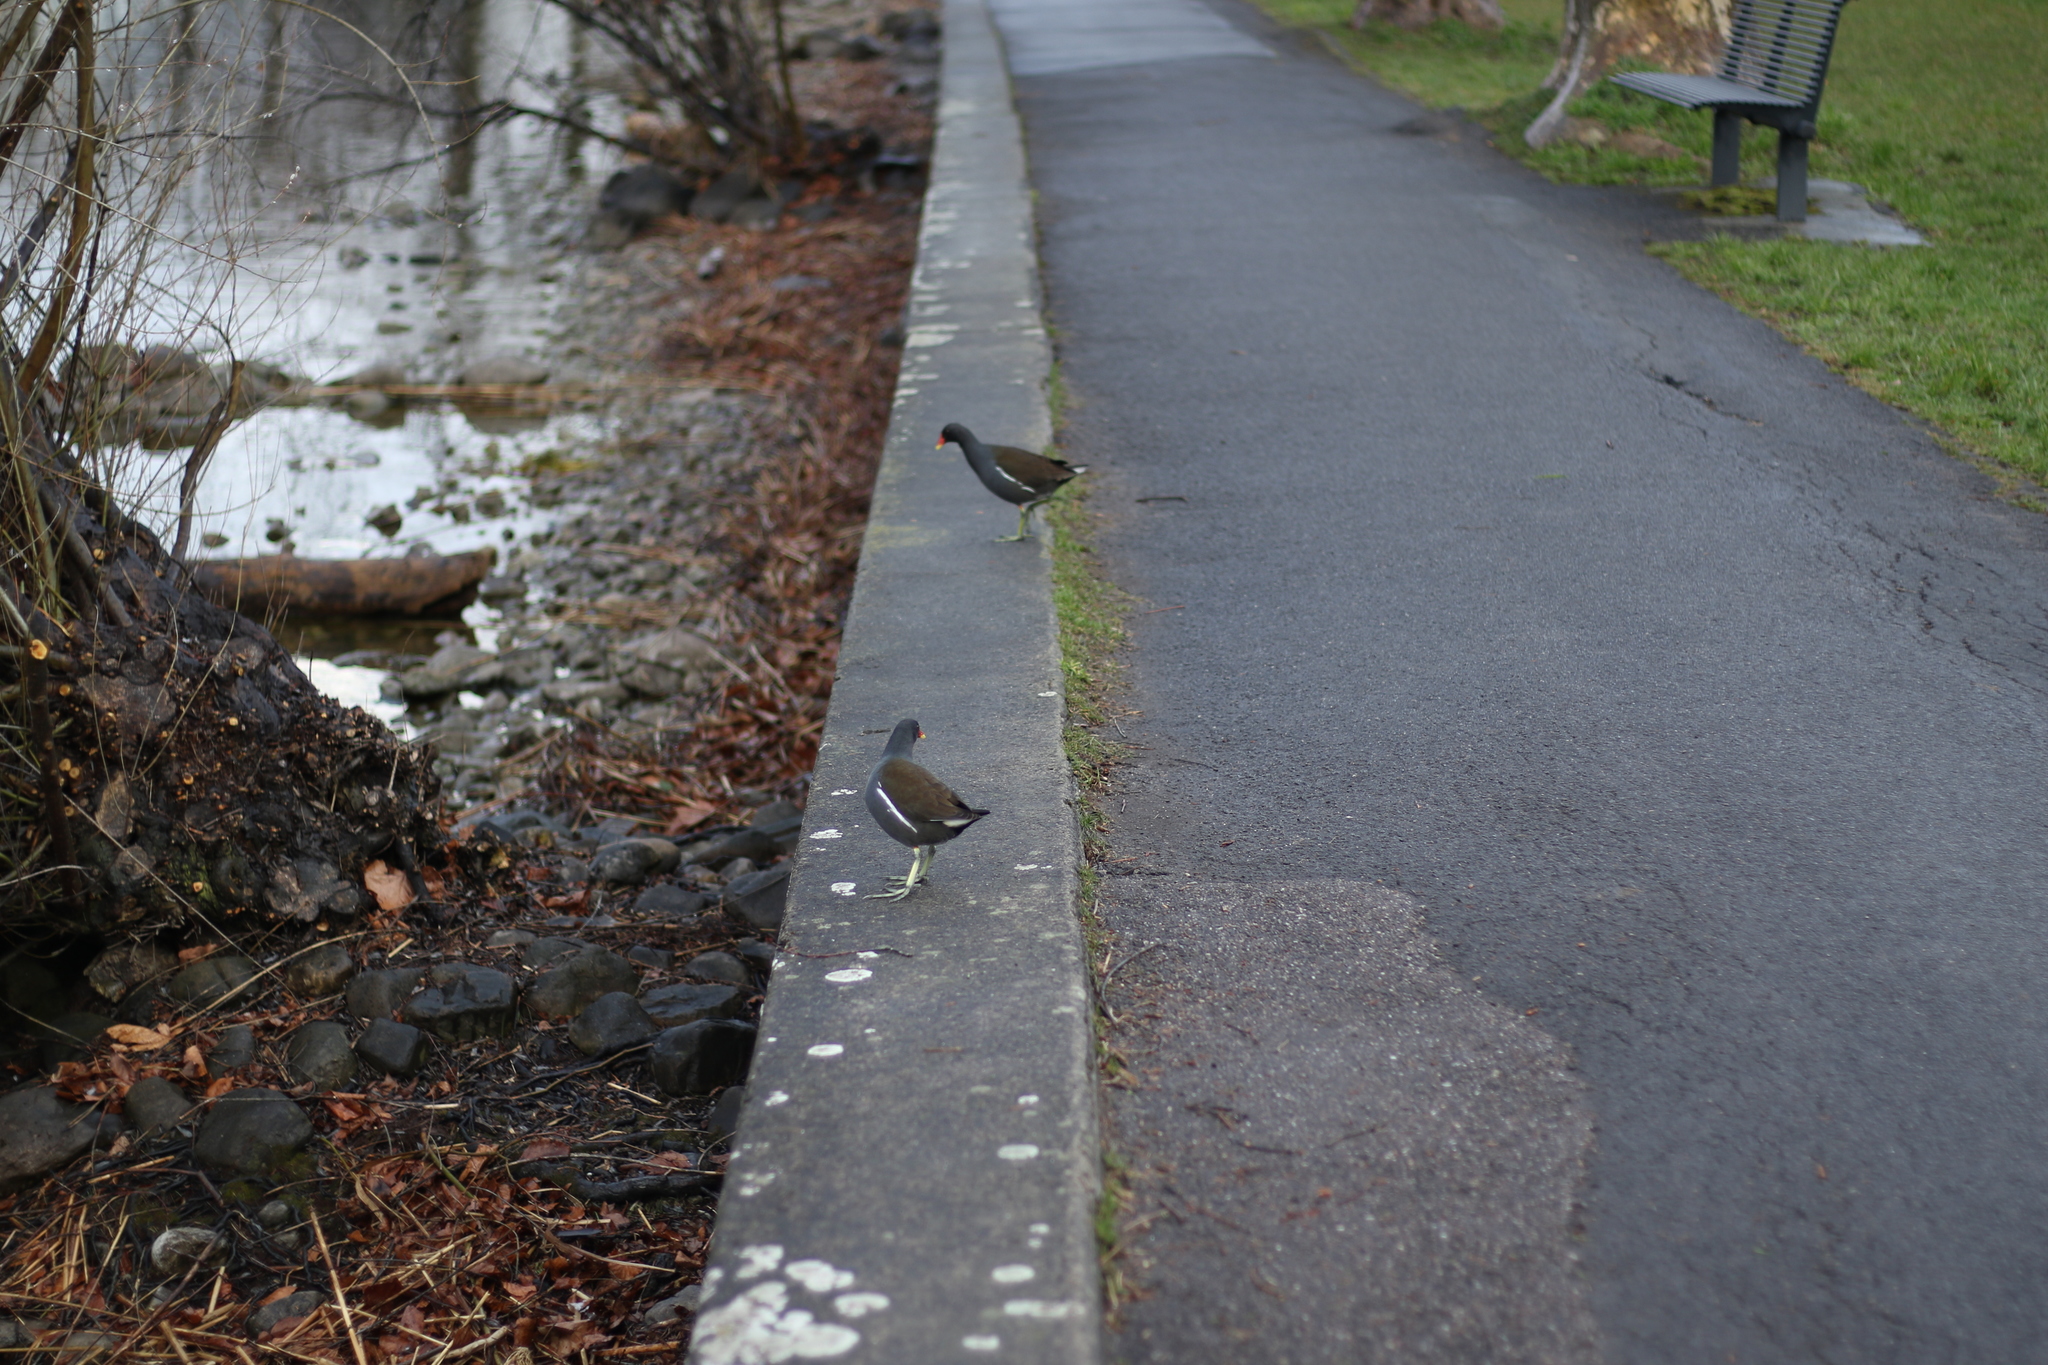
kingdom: Animalia
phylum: Chordata
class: Aves
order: Gruiformes
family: Rallidae
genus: Gallinula
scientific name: Gallinula chloropus
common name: Common moorhen
